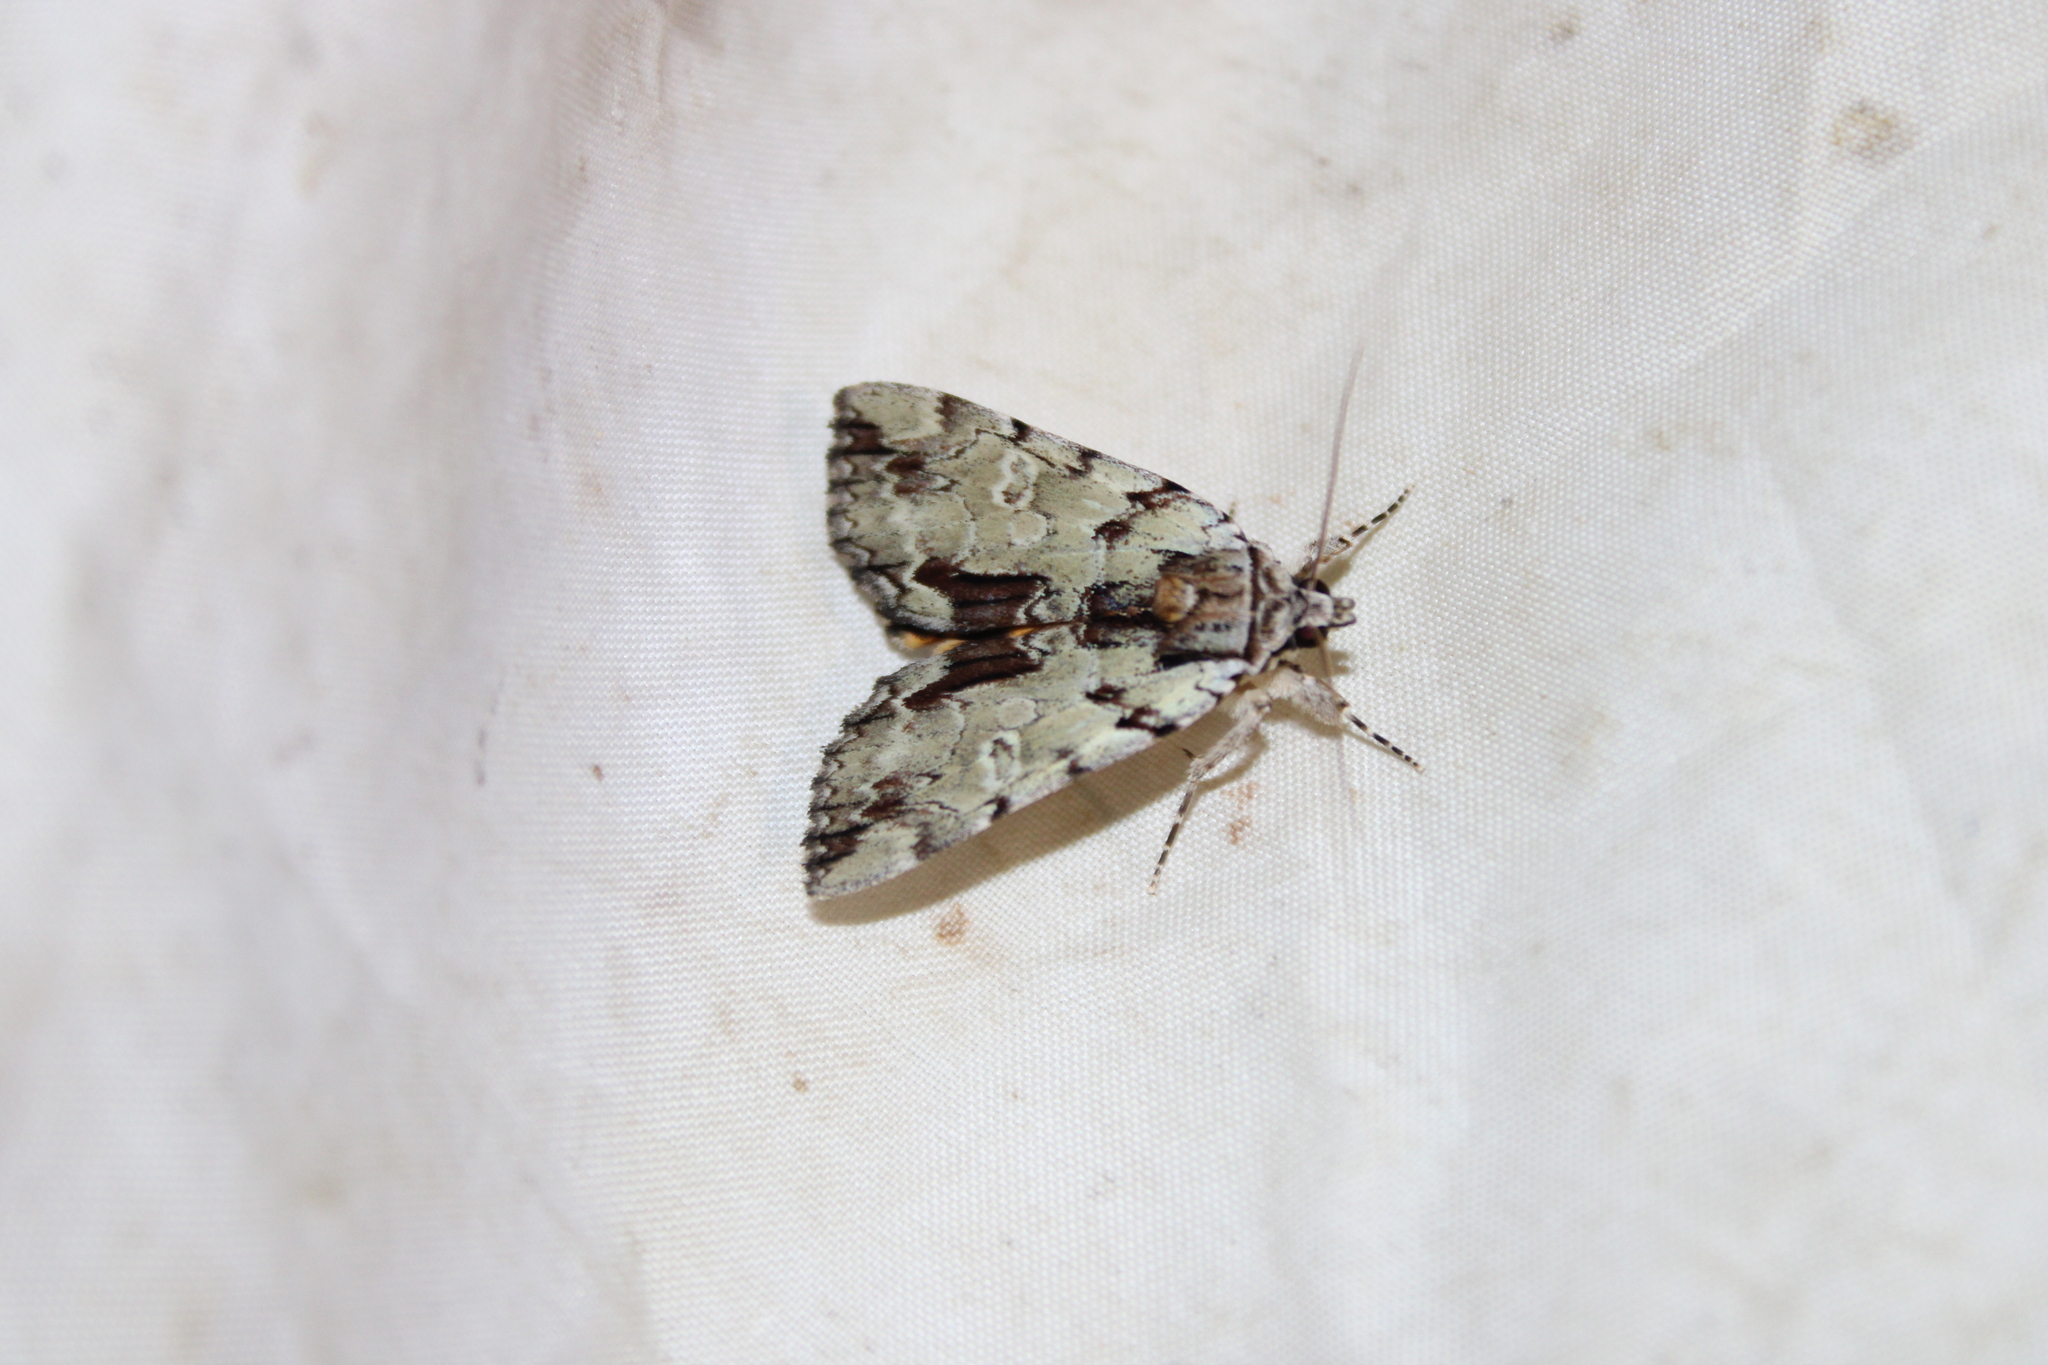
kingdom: Animalia
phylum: Arthropoda
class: Insecta
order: Lepidoptera
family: Erebidae
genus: Catocala
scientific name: Catocala praeclara
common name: Praeclara underwing
